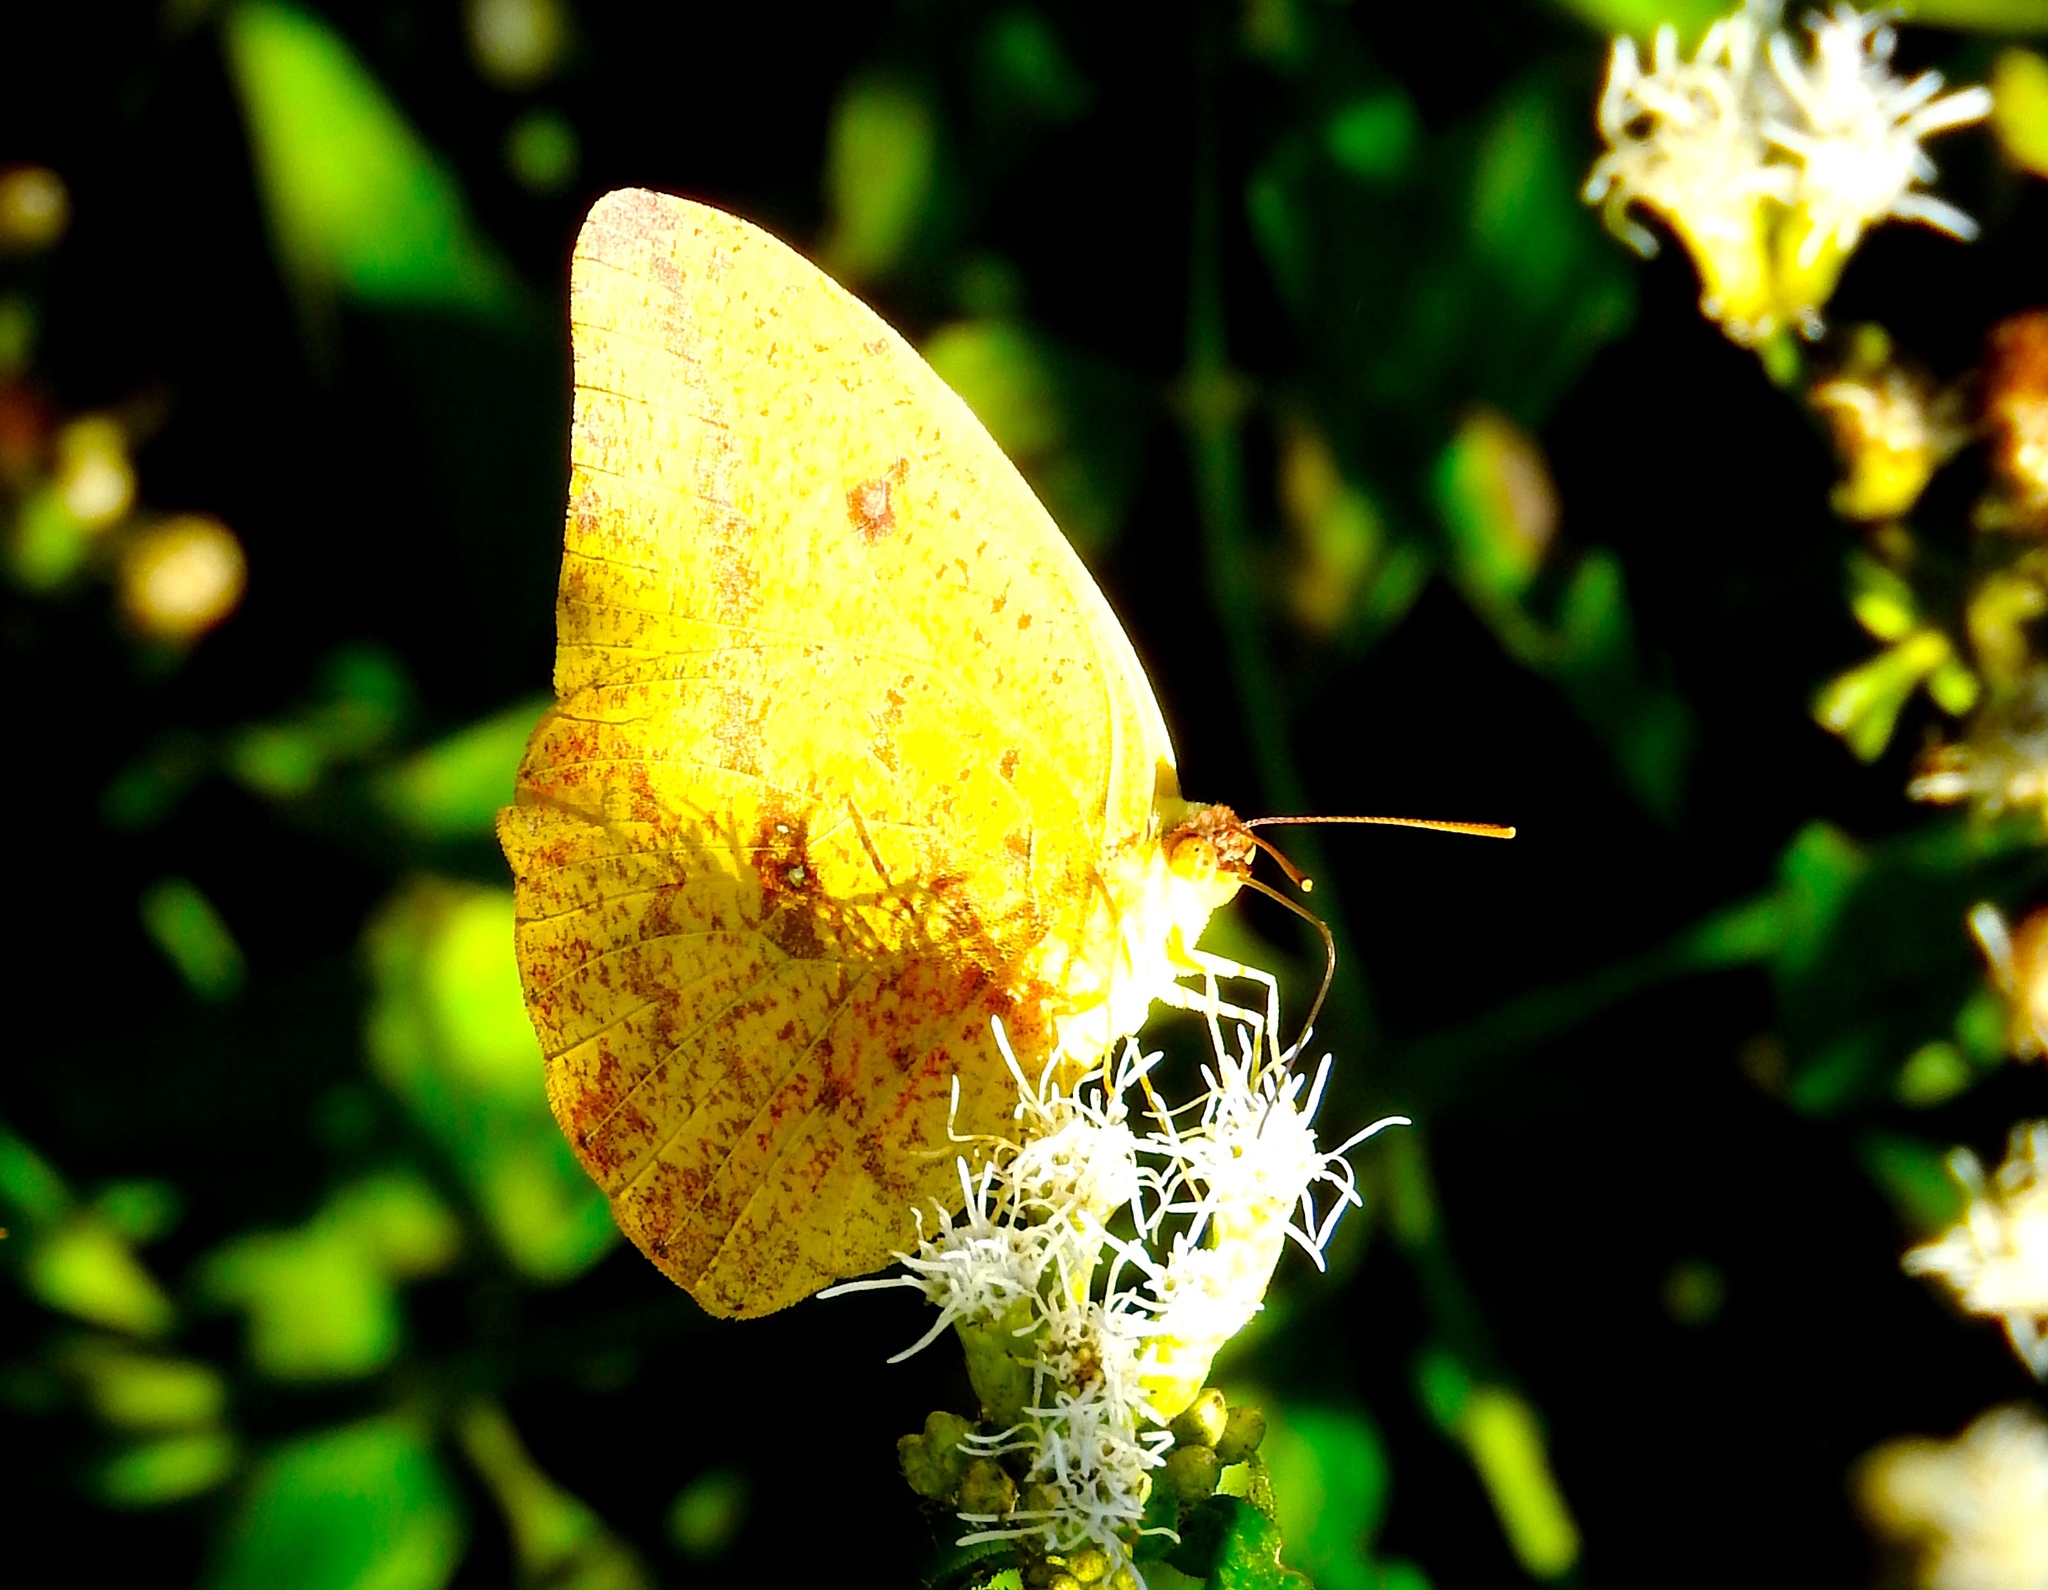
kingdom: Animalia
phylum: Arthropoda
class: Insecta
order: Lepidoptera
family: Pieridae
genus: Phoebis
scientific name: Phoebis
